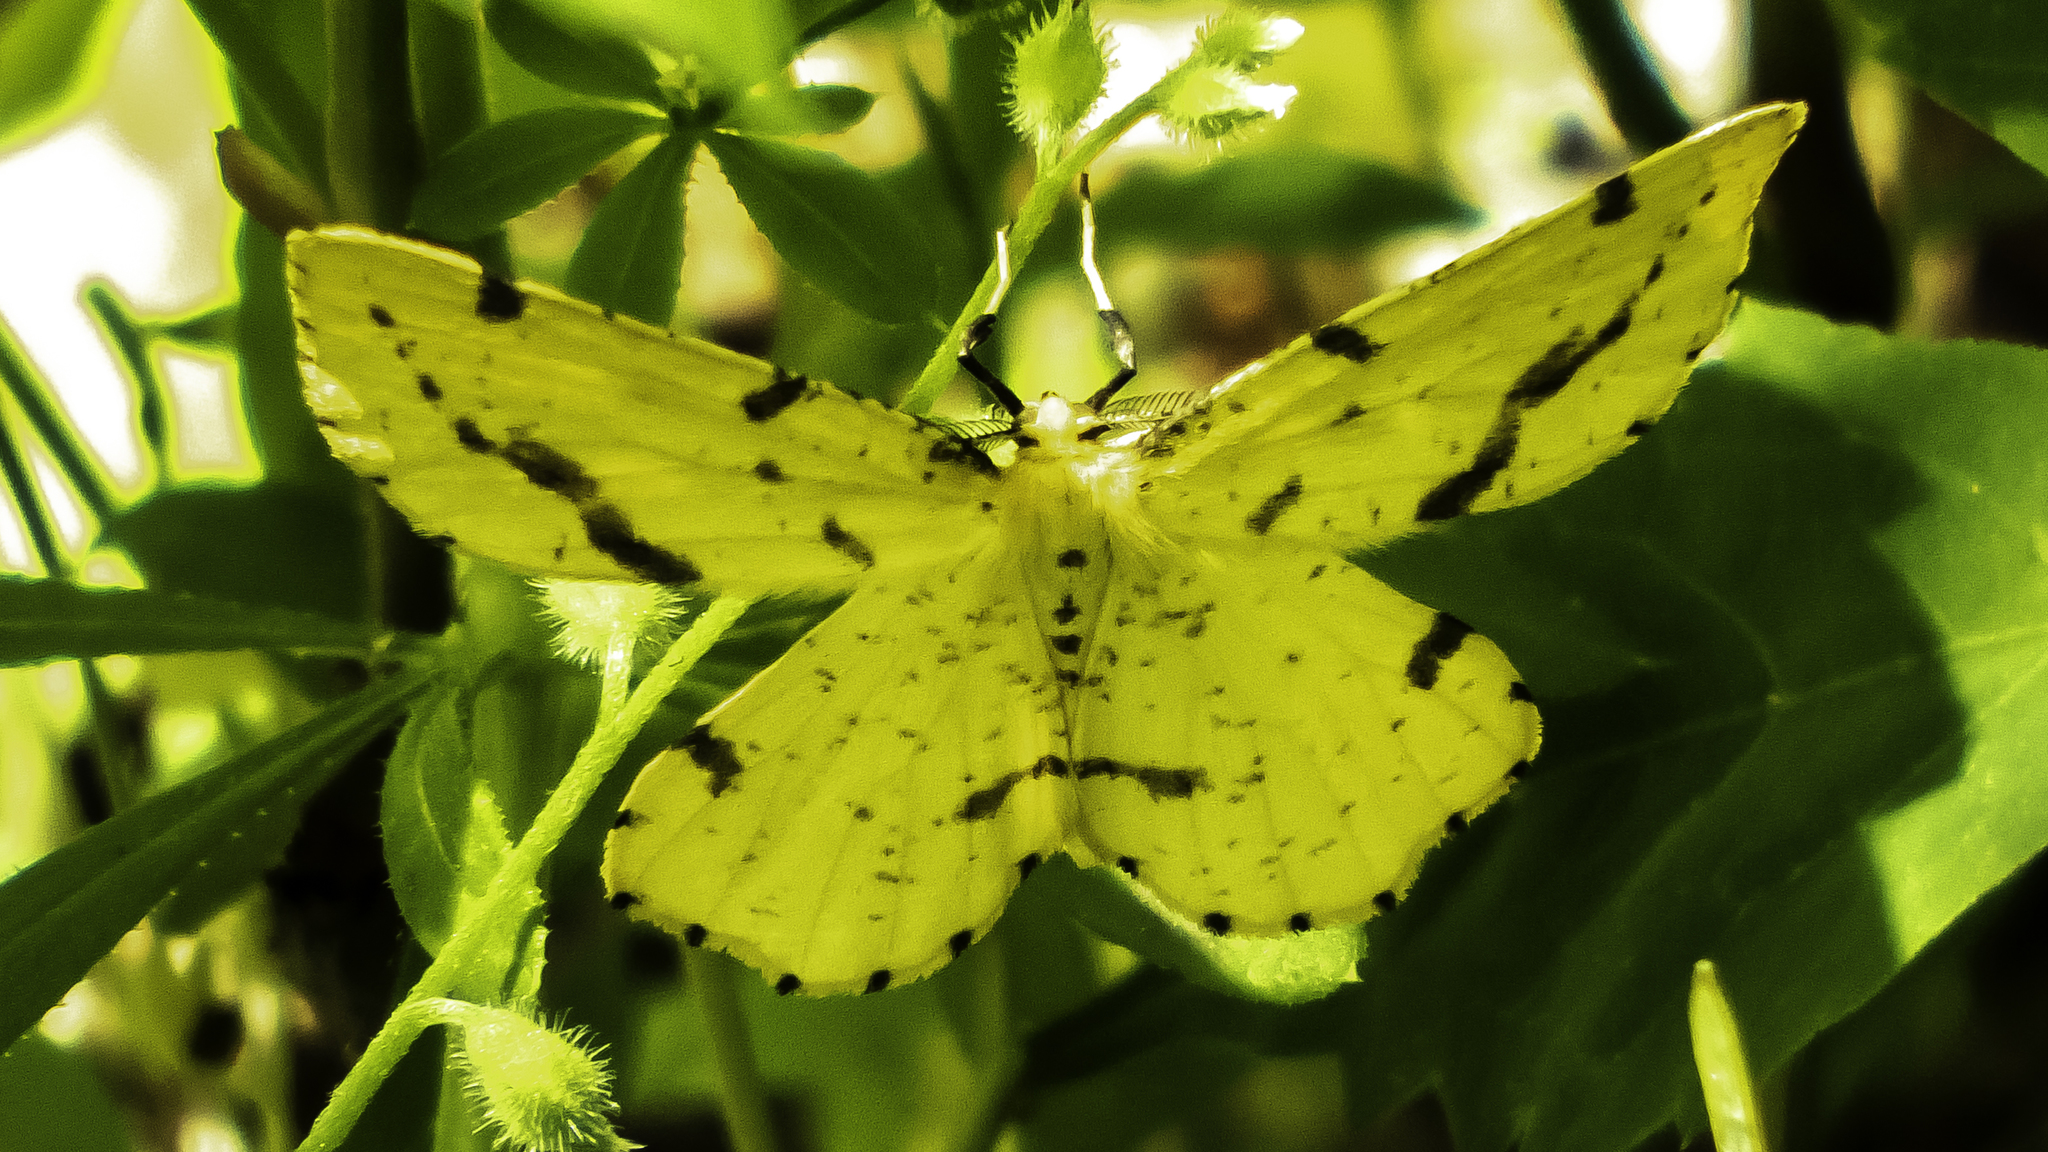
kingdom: Animalia
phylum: Arthropoda
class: Insecta
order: Lepidoptera
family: Geometridae
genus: Xanthotype
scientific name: Xanthotype
